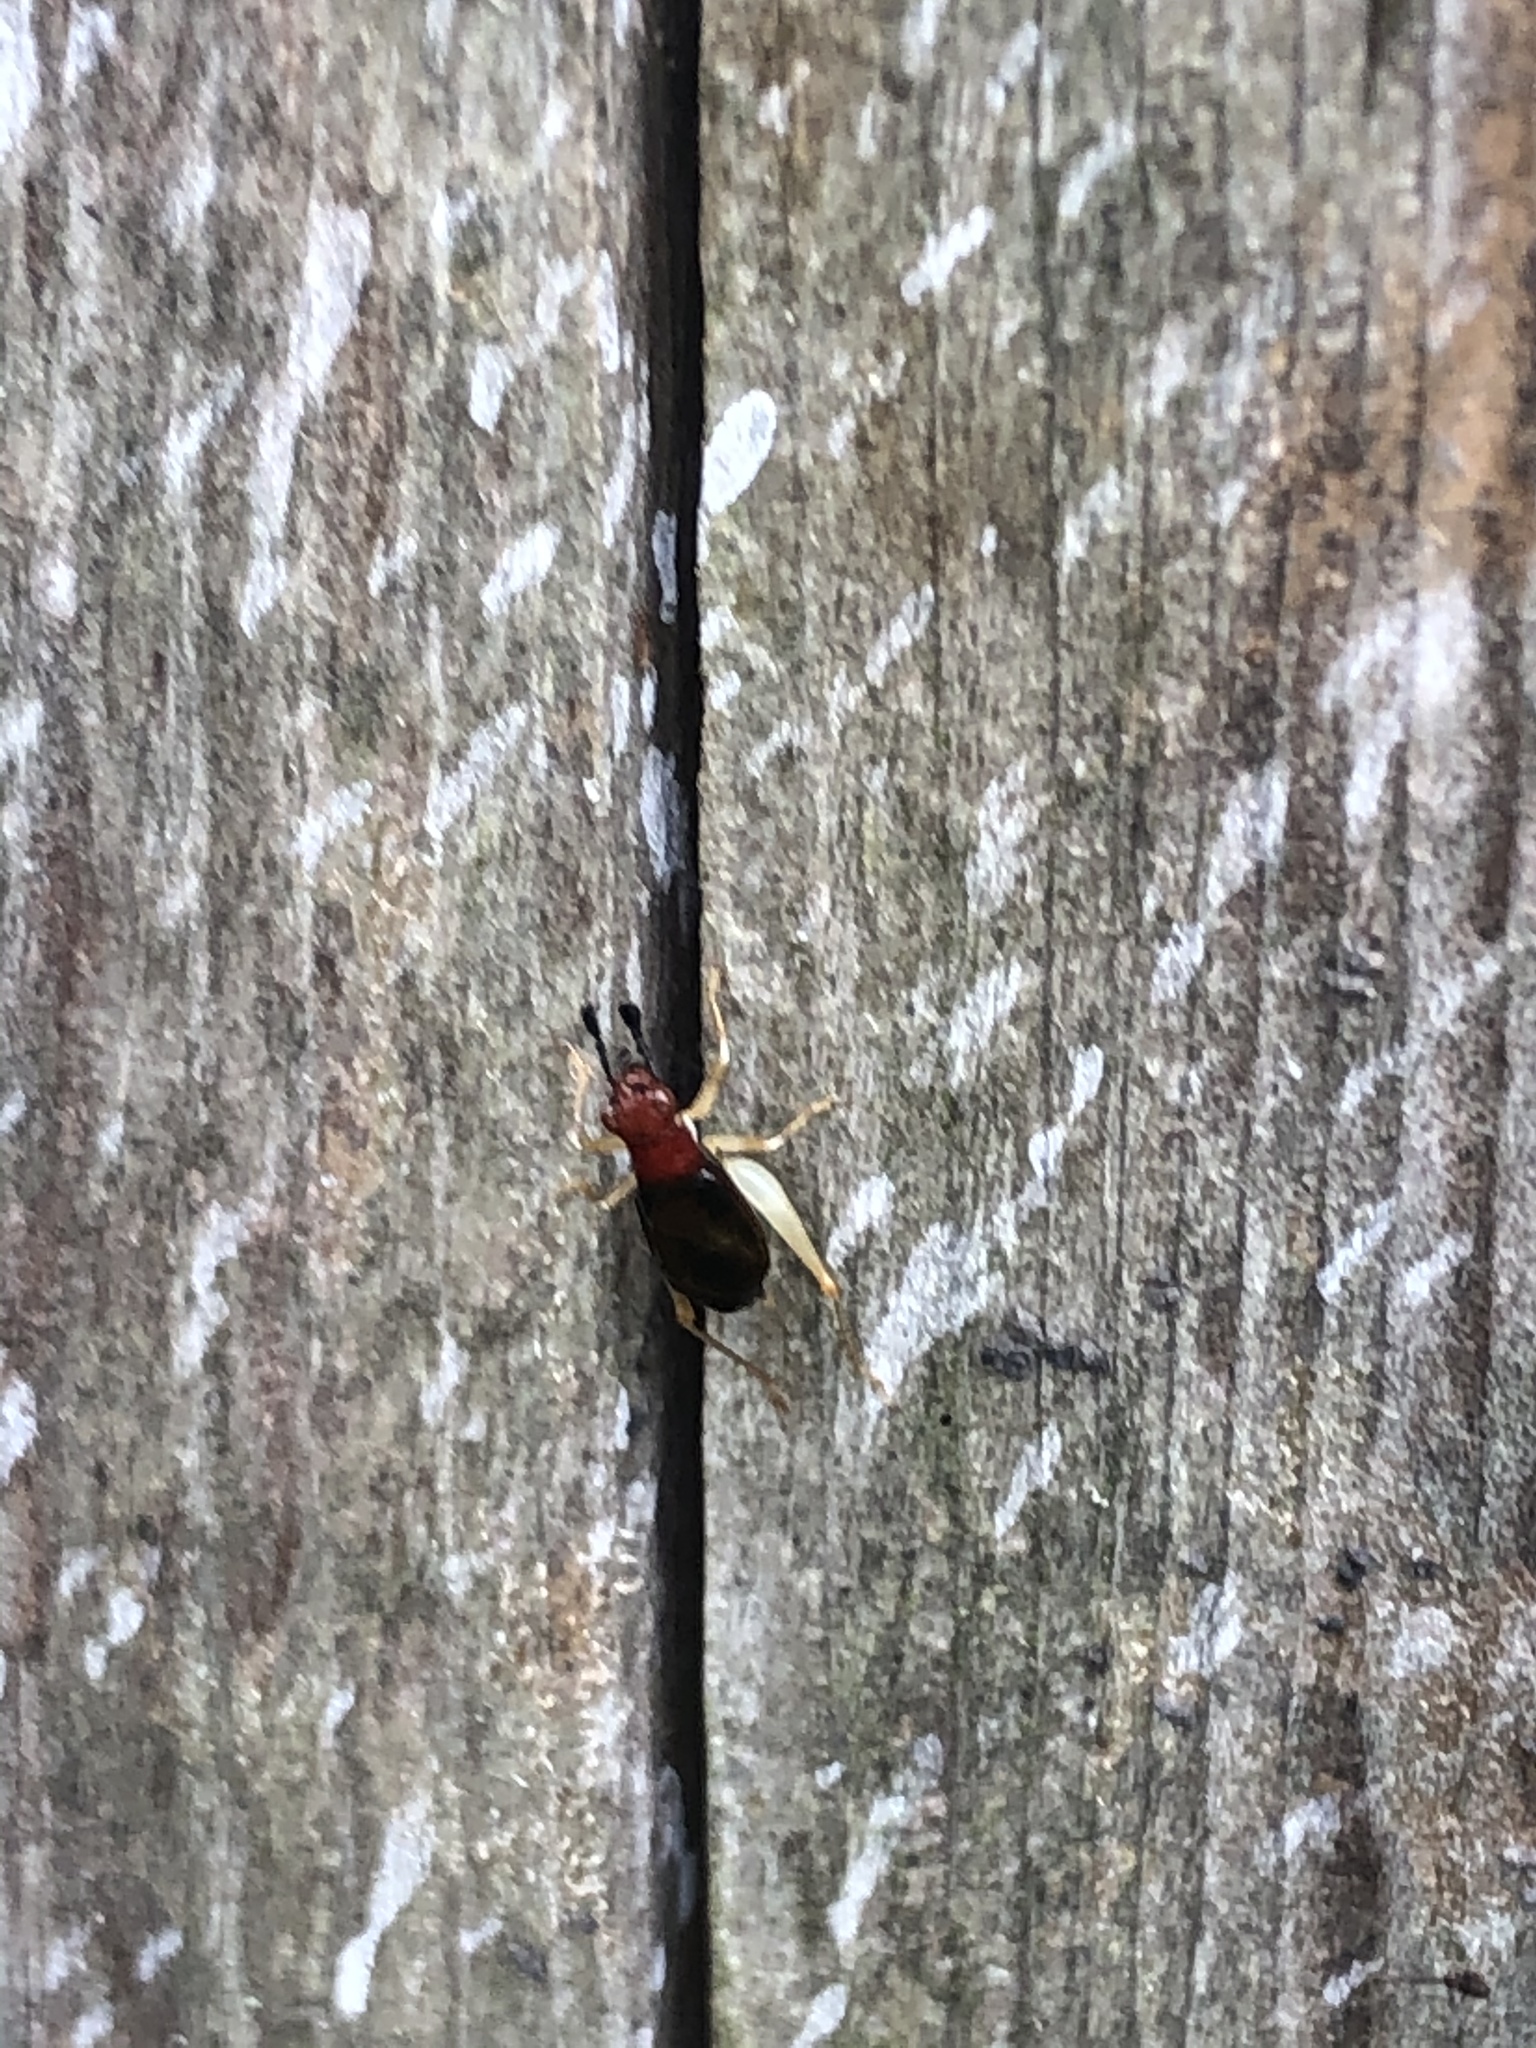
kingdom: Animalia
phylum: Arthropoda
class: Insecta
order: Orthoptera
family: Trigonidiidae
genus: Phyllopalpus
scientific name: Phyllopalpus pulchellus
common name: Handsome trig
